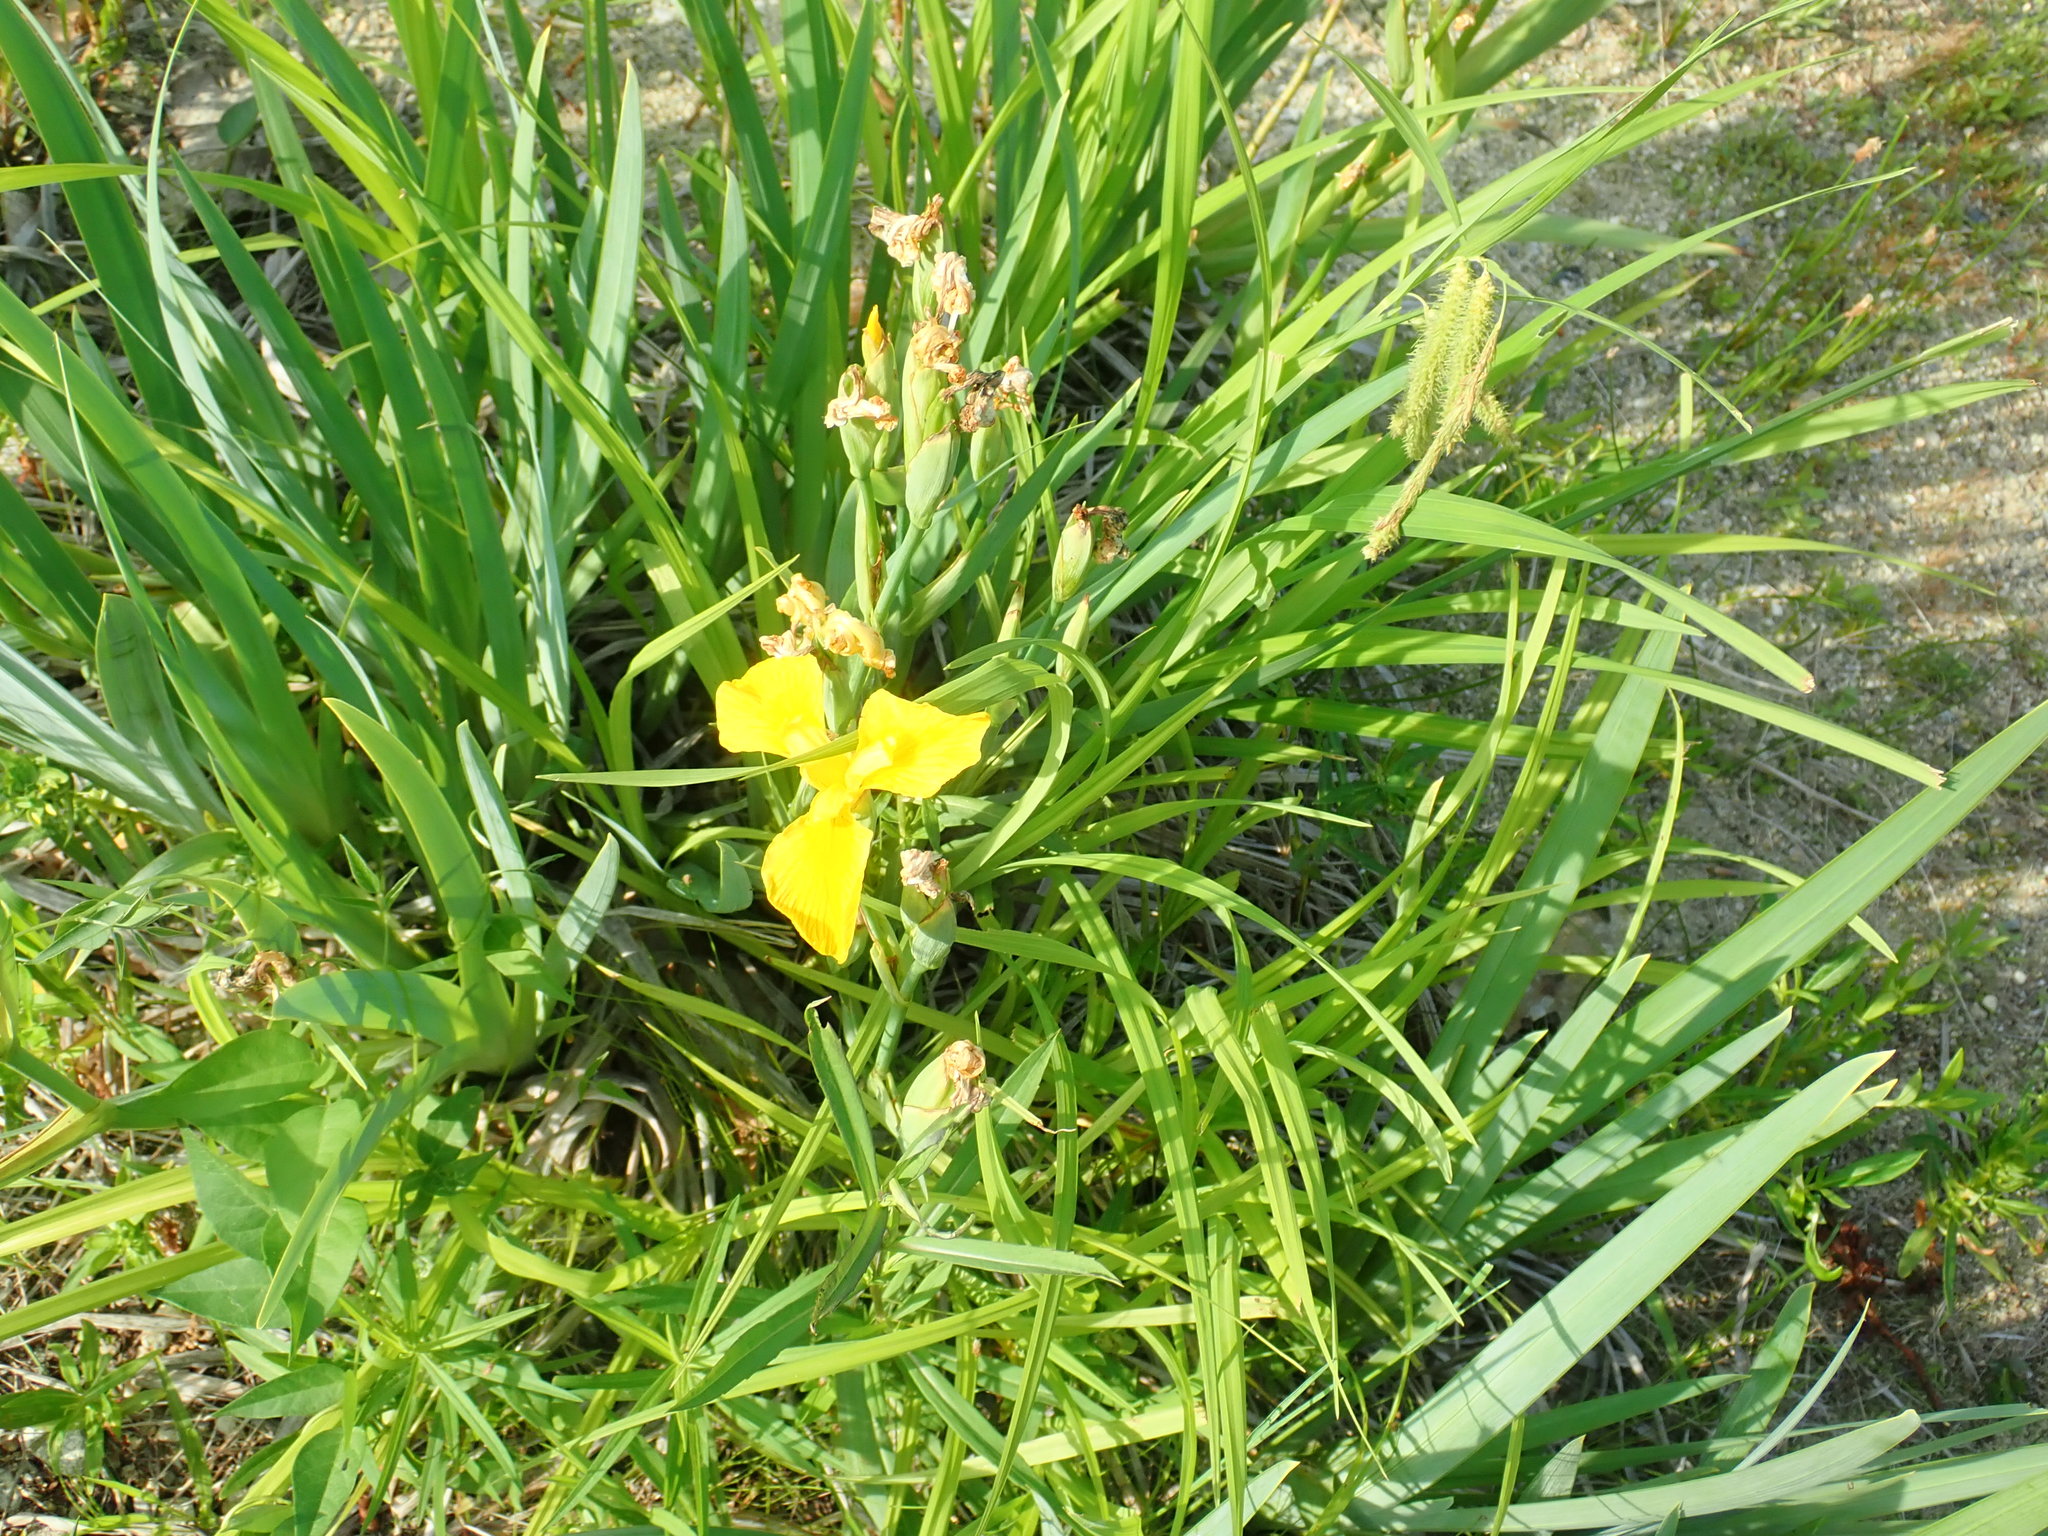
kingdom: Plantae
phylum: Tracheophyta
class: Liliopsida
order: Asparagales
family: Iridaceae
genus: Iris
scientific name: Iris pseudacorus
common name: Yellow flag
